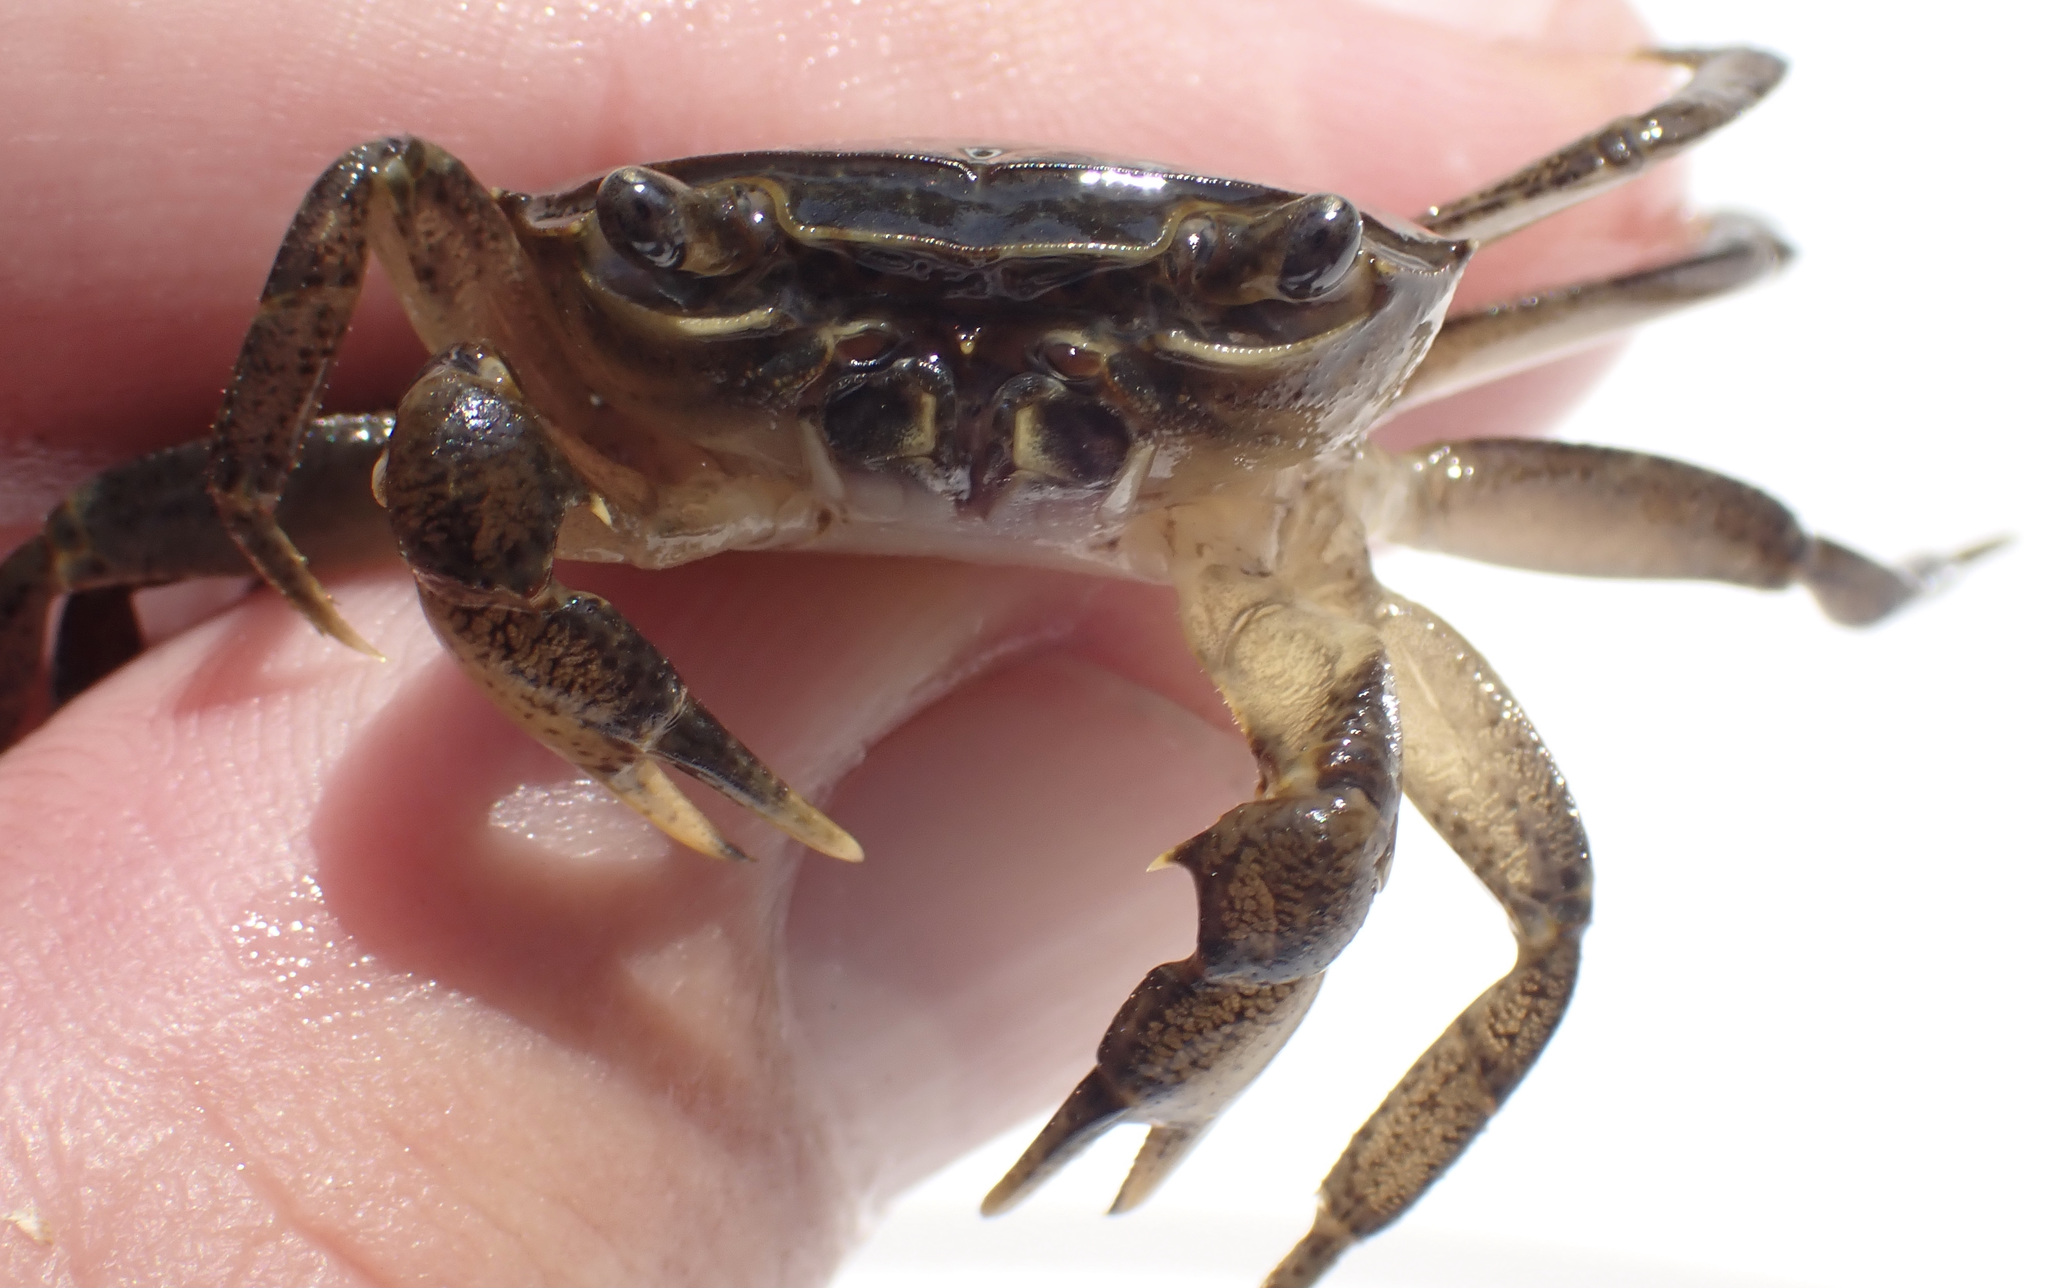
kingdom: Animalia
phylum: Arthropoda
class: Malacostraca
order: Decapoda
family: Potamonautidae
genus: Potamonautes
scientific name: Potamonautes bayonianus
